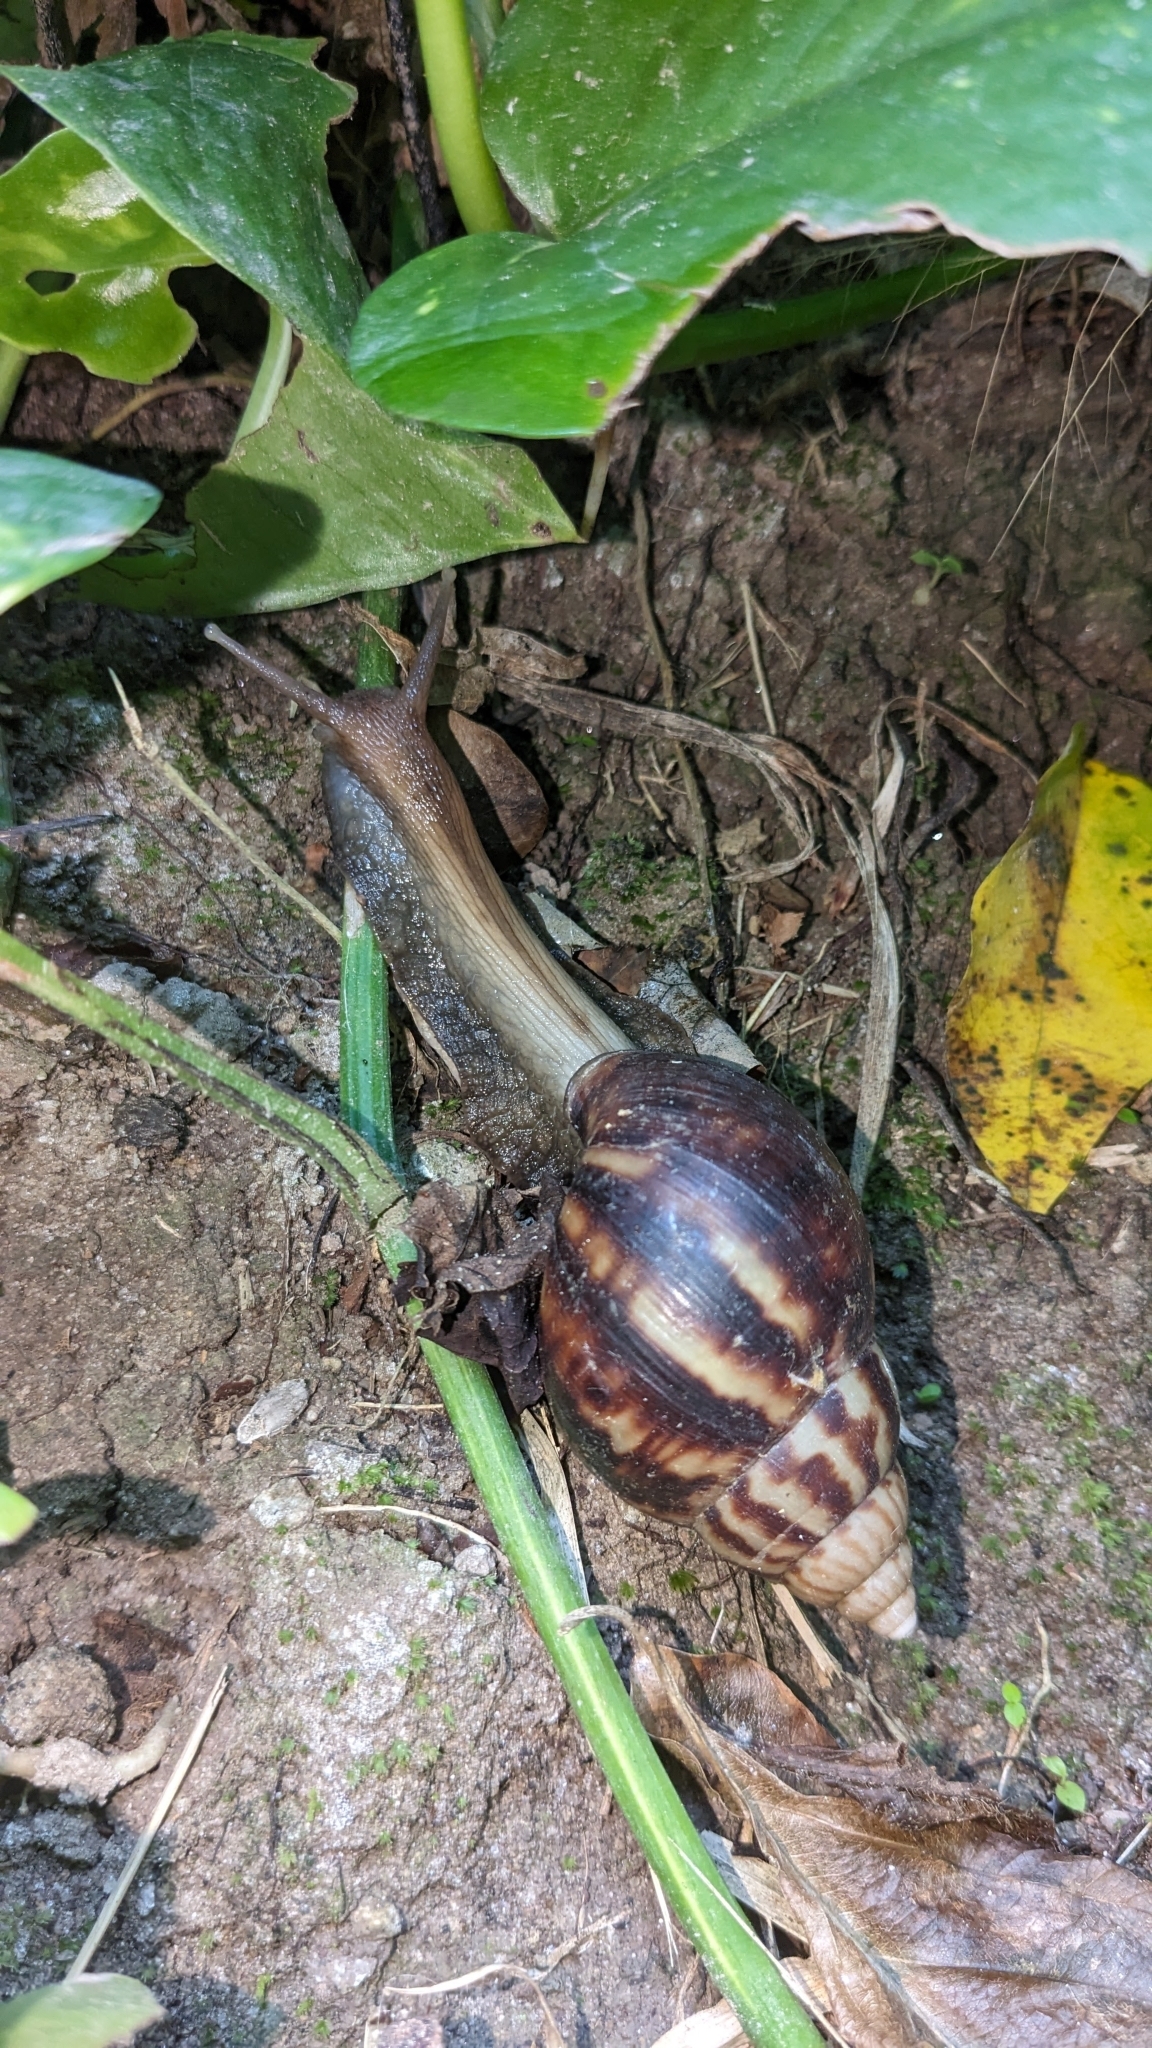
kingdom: Animalia
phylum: Mollusca
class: Gastropoda
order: Stylommatophora
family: Achatinidae
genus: Lissachatina
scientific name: Lissachatina fulica
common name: Giant african snail
